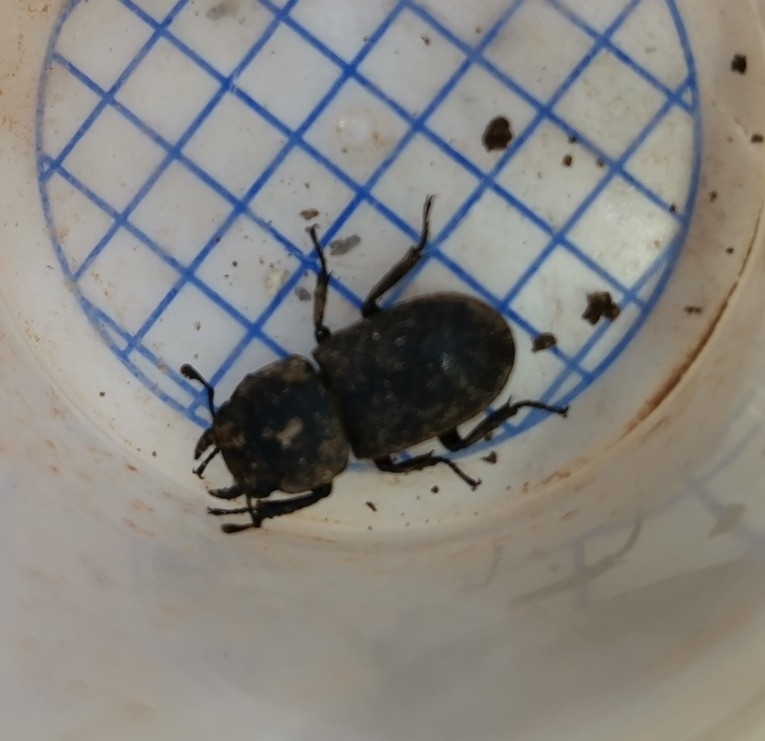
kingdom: Animalia
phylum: Arthropoda
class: Insecta
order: Coleoptera
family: Lucanidae
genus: Dorcus
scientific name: Dorcus parallelipipedus
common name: Lesser stag beetle
